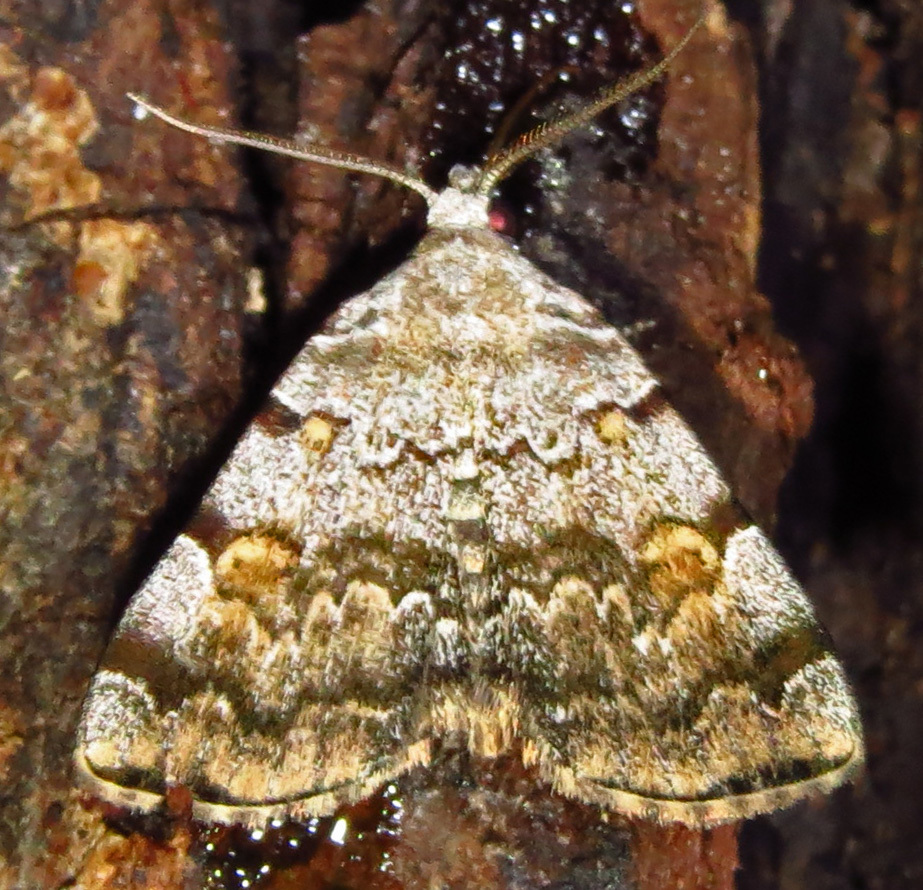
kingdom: Animalia
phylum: Arthropoda
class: Insecta
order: Lepidoptera
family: Erebidae
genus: Idia
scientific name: Idia americalis
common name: American idia moth
